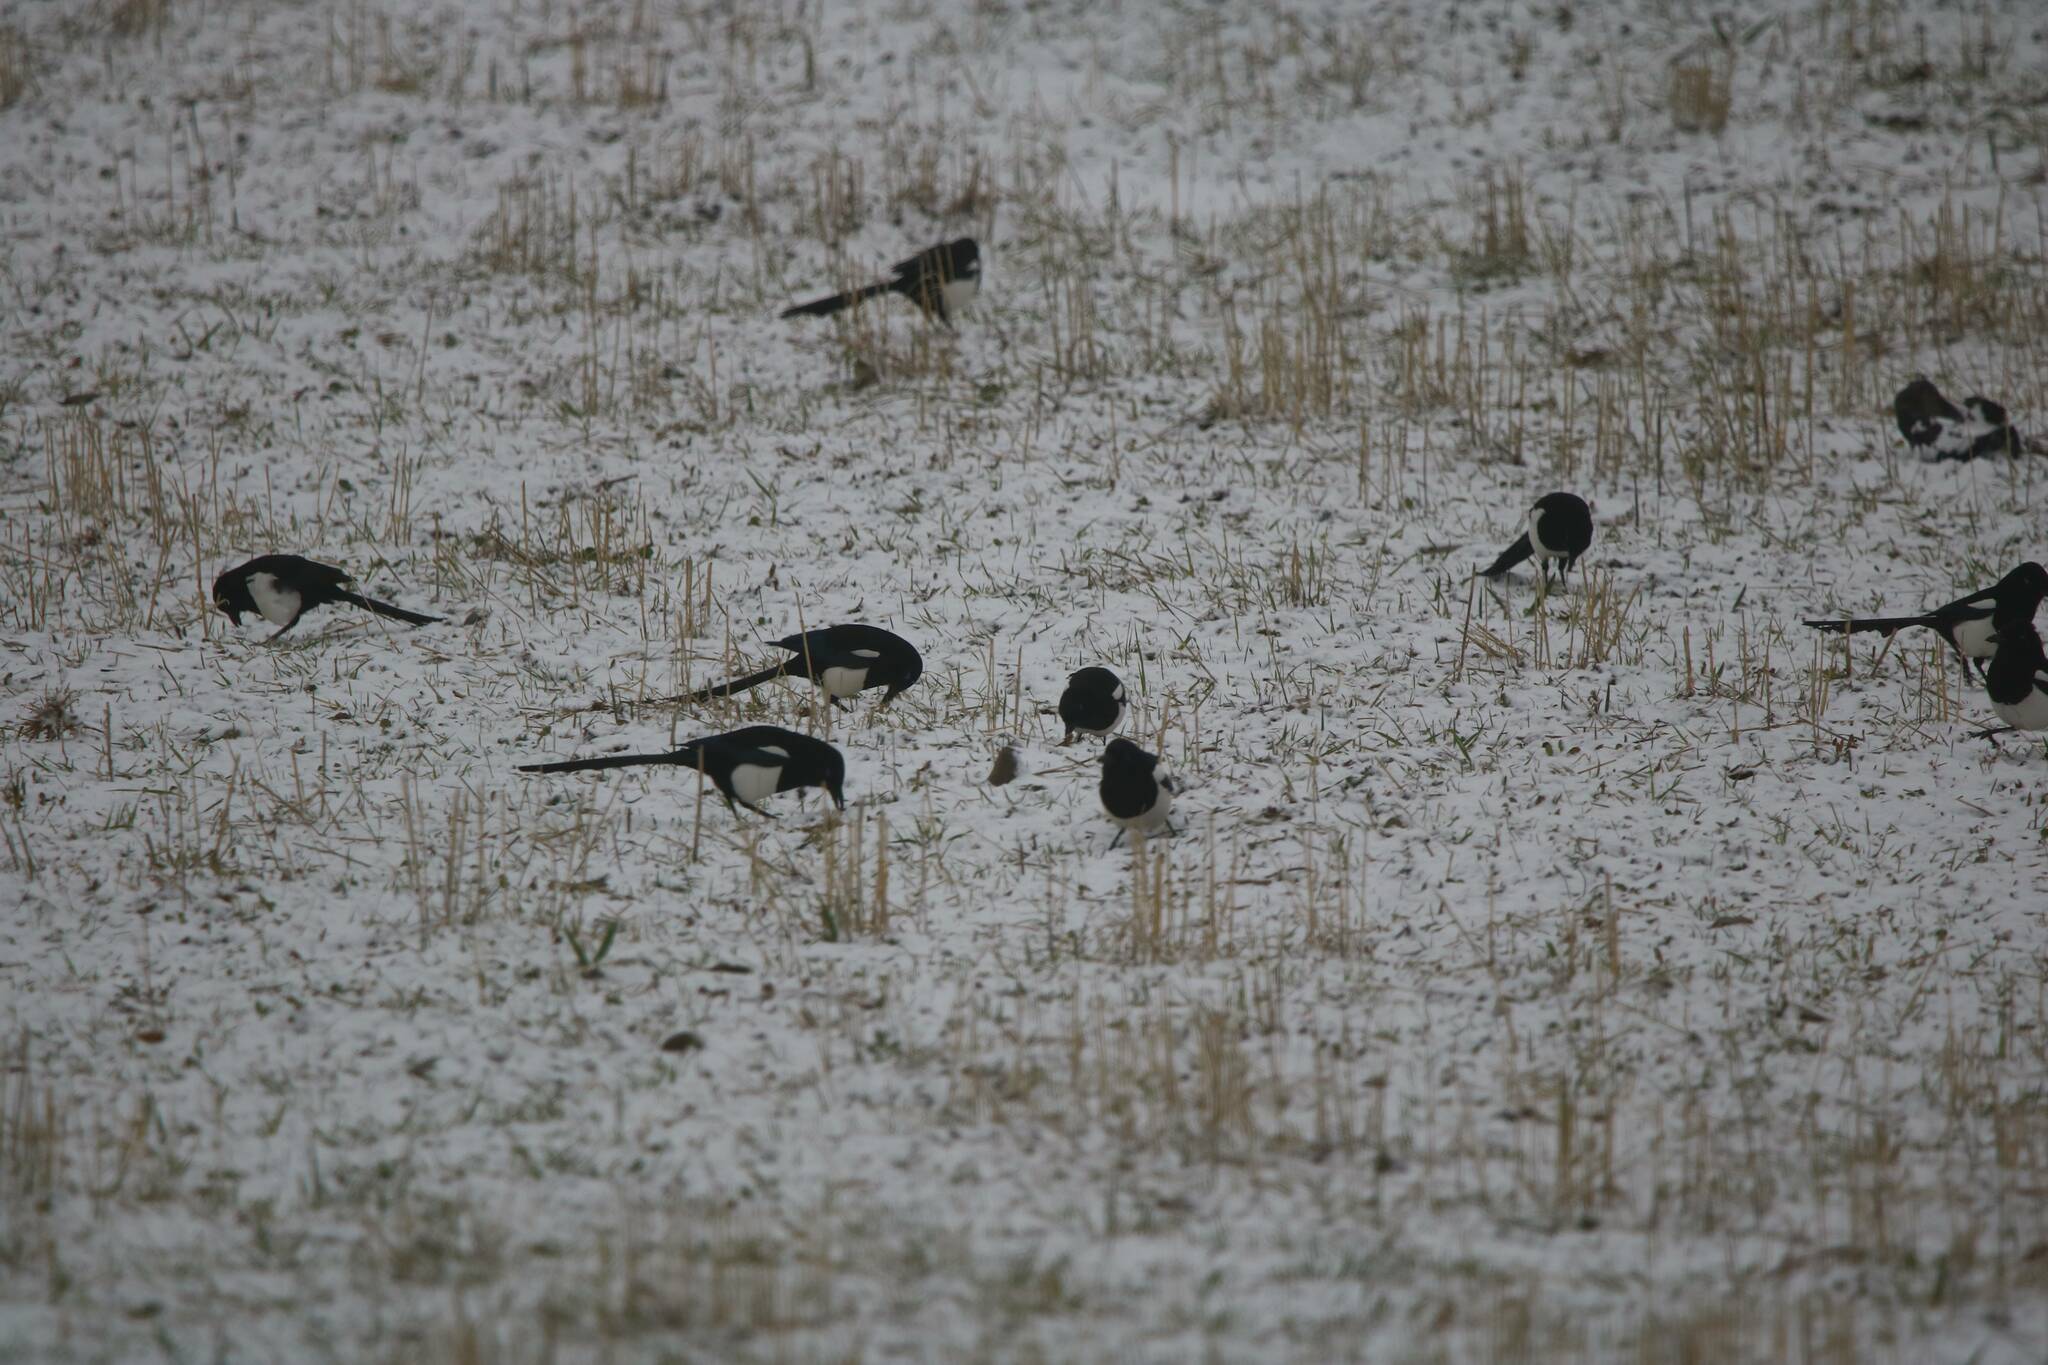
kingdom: Animalia
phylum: Chordata
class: Aves
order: Passeriformes
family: Corvidae
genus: Pica
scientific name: Pica mauritanica
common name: Maghreb magpie
